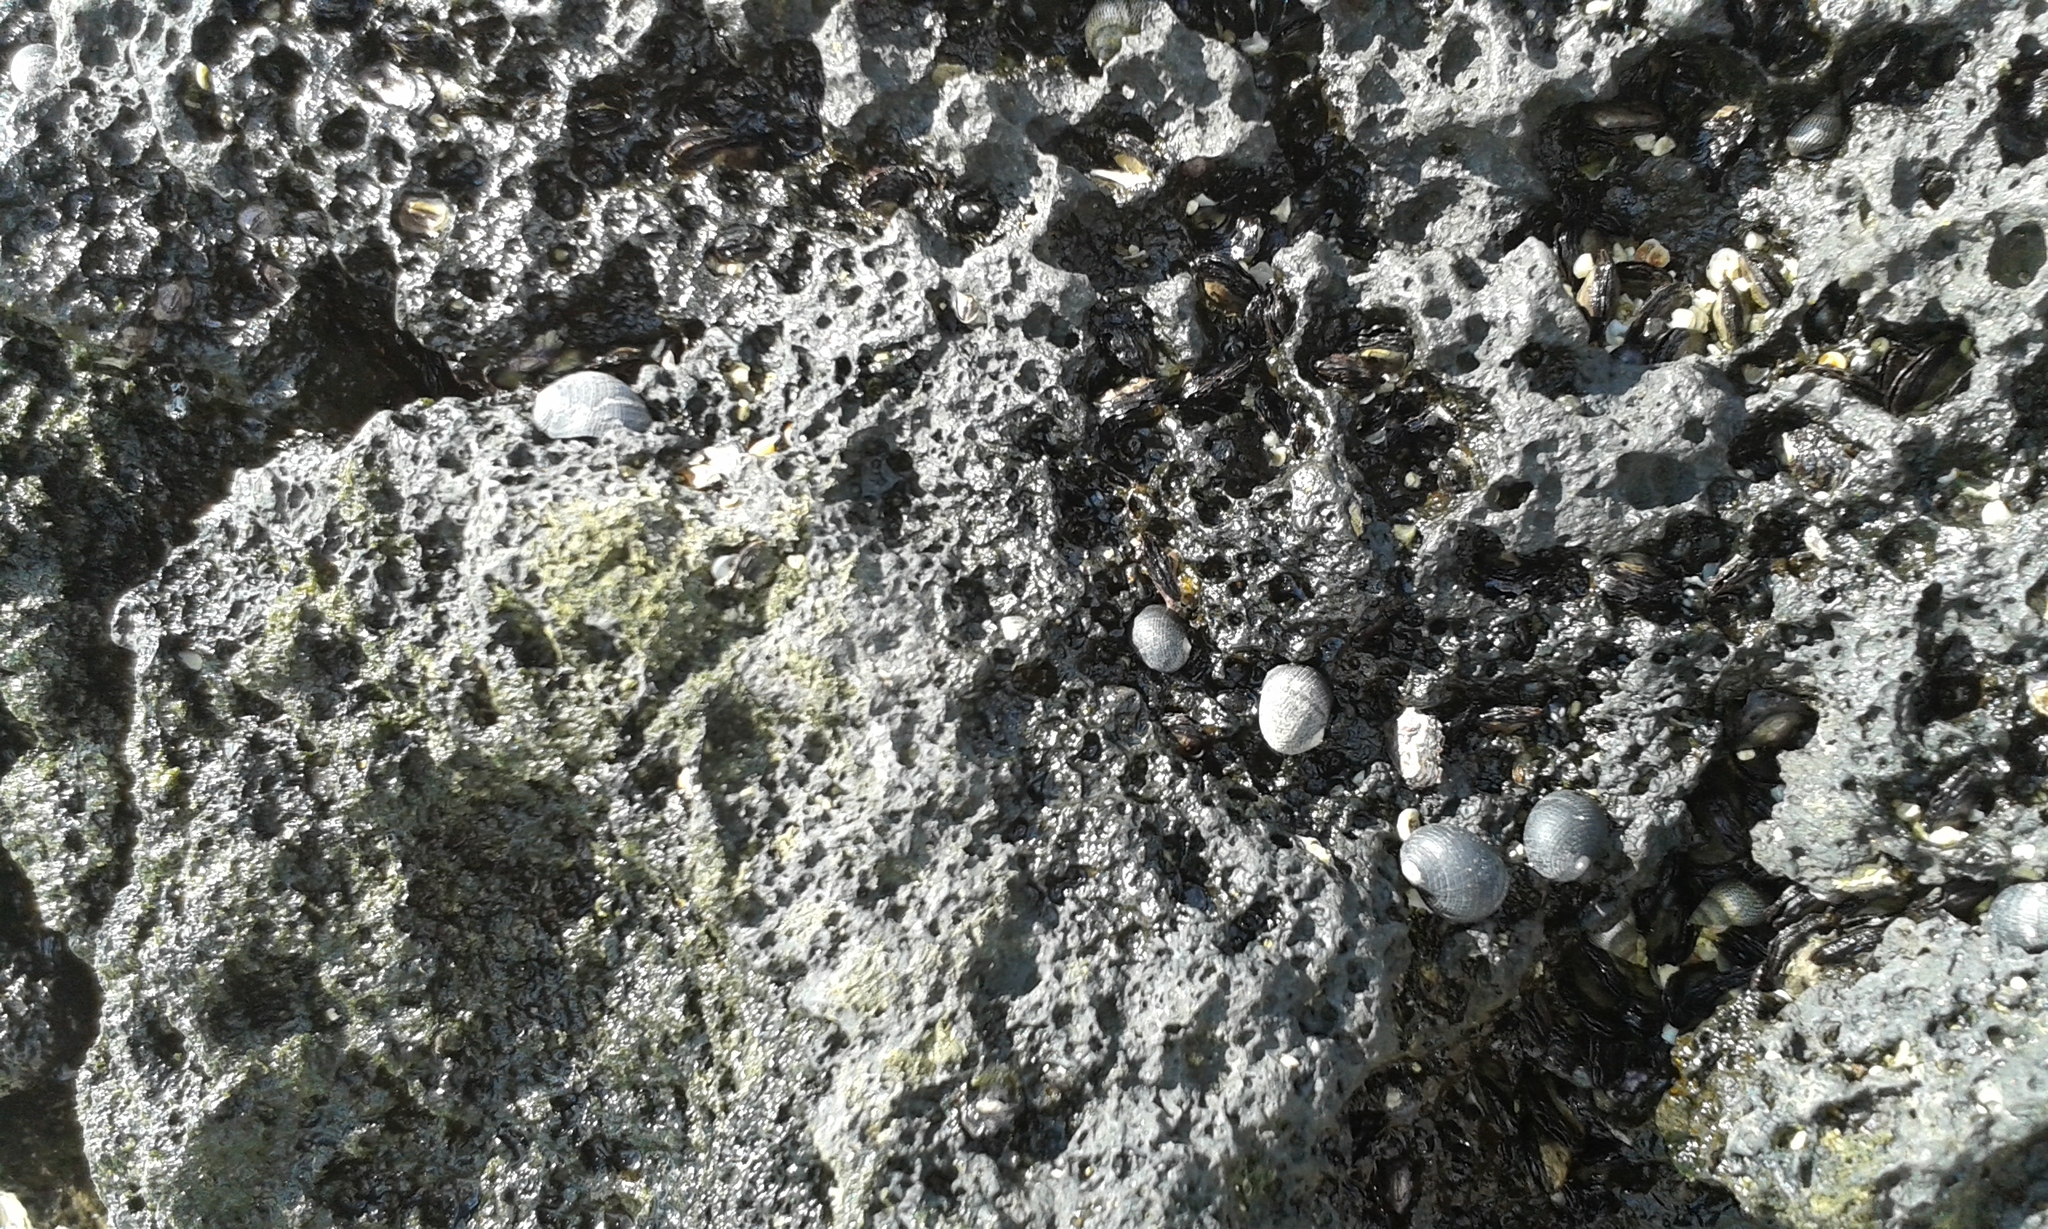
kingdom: Animalia
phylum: Mollusca
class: Gastropoda
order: Cycloneritida
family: Neritidae
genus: Nerita
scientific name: Nerita picea
